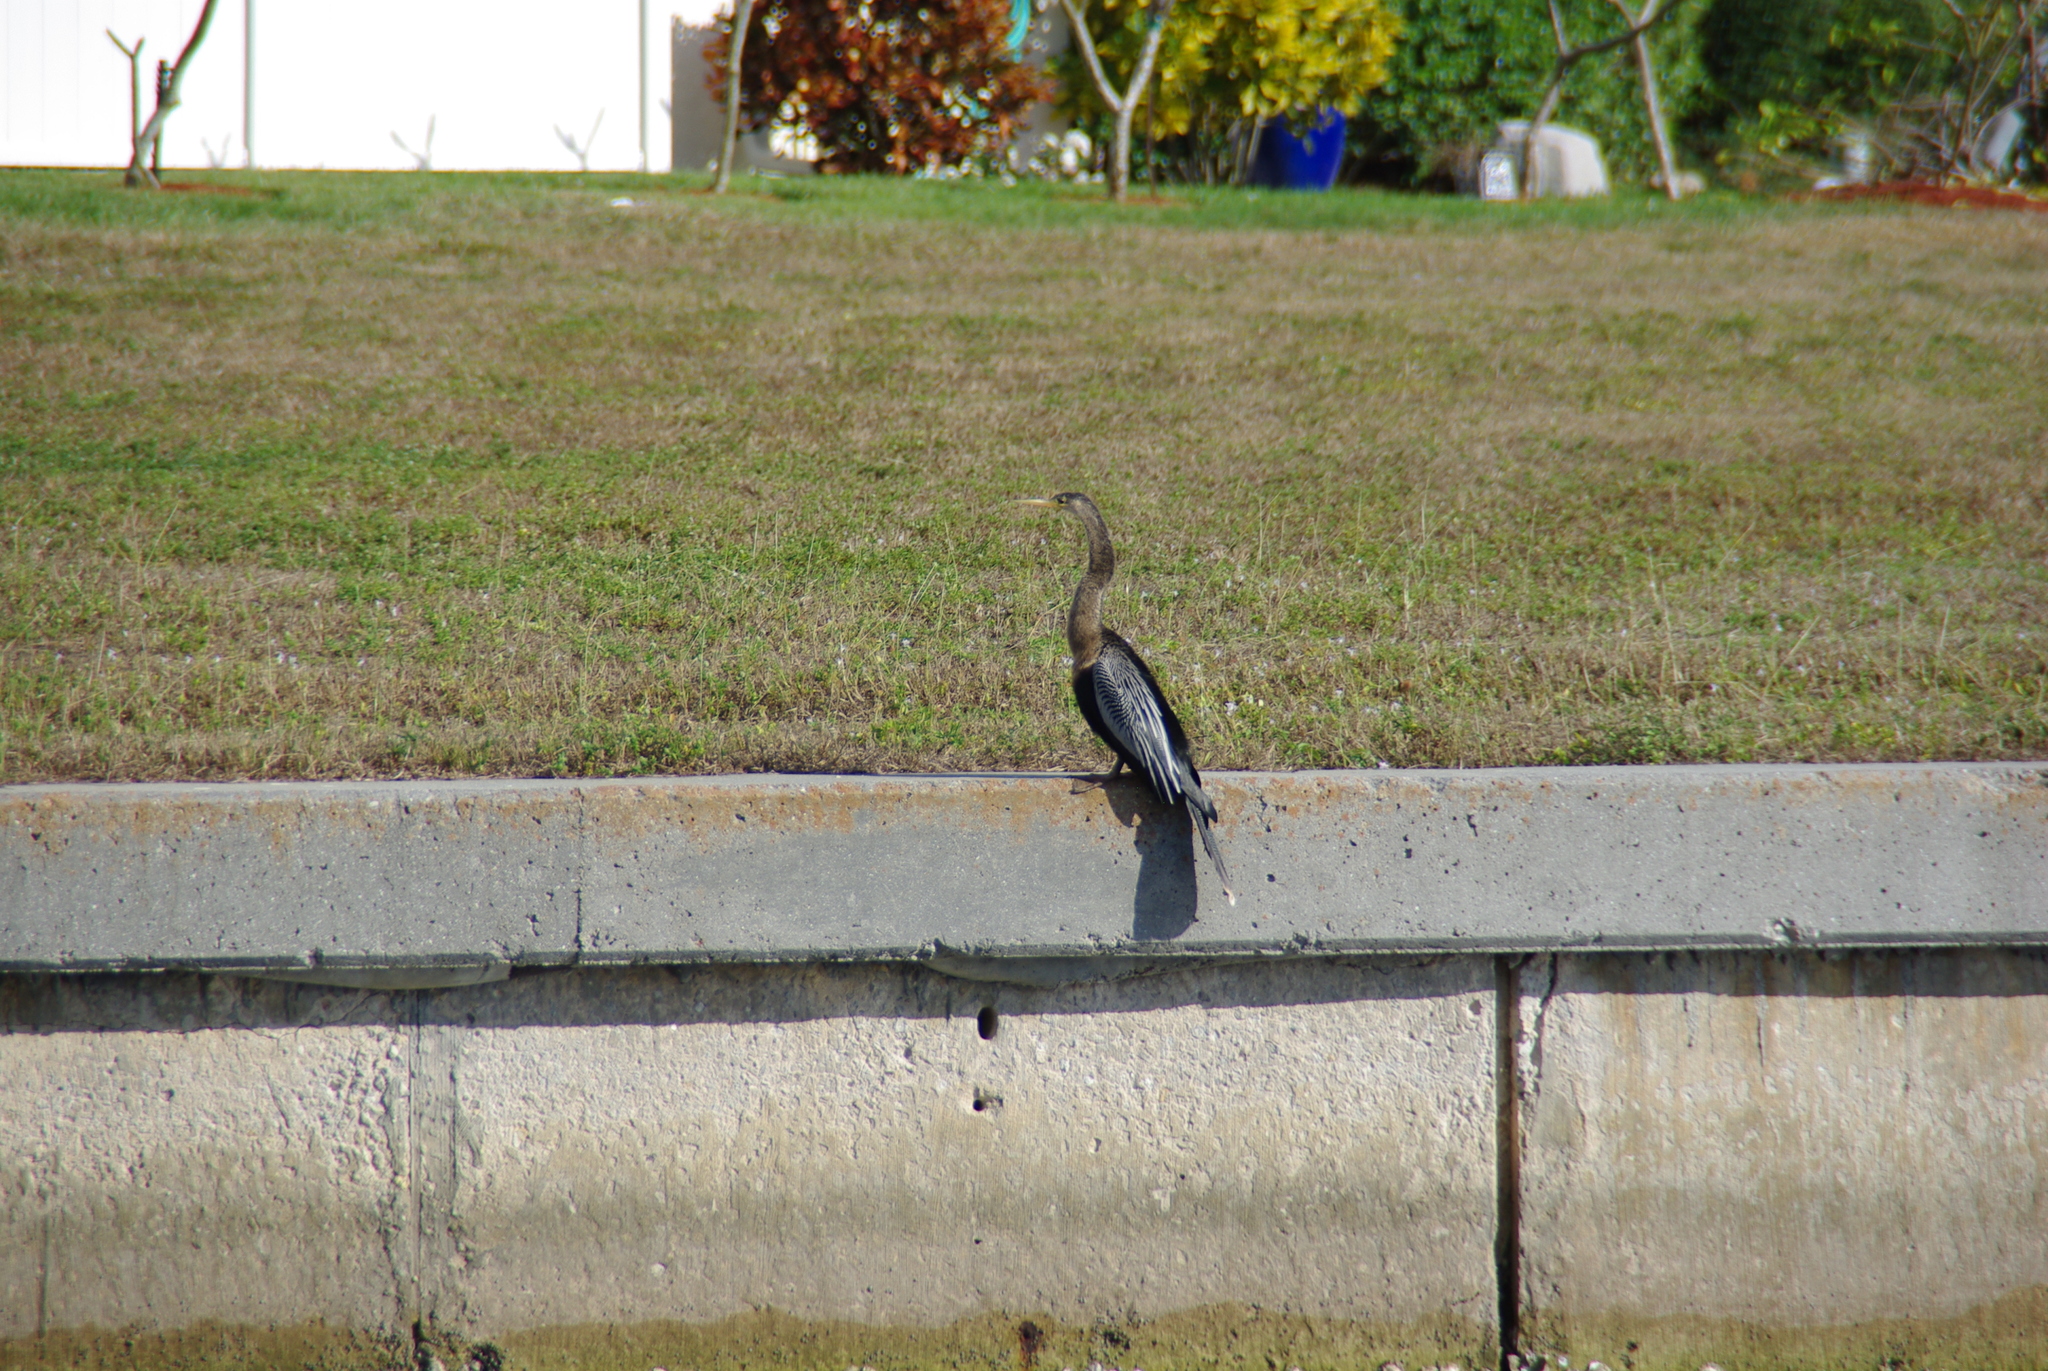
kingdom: Animalia
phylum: Chordata
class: Aves
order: Suliformes
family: Anhingidae
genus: Anhinga
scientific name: Anhinga anhinga
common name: Anhinga
